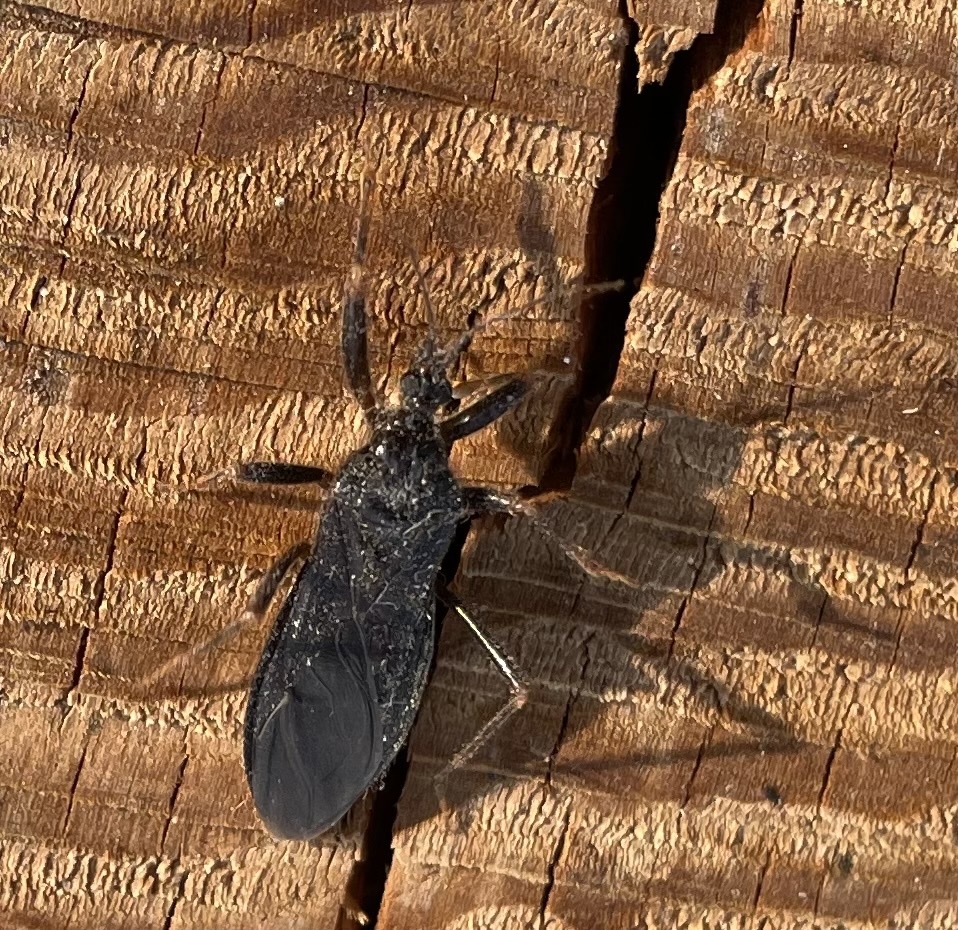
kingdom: Animalia
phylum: Arthropoda
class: Insecta
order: Hemiptera
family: Reduviidae
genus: Reduvius
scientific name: Reduvius personatus
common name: Masked hunter
